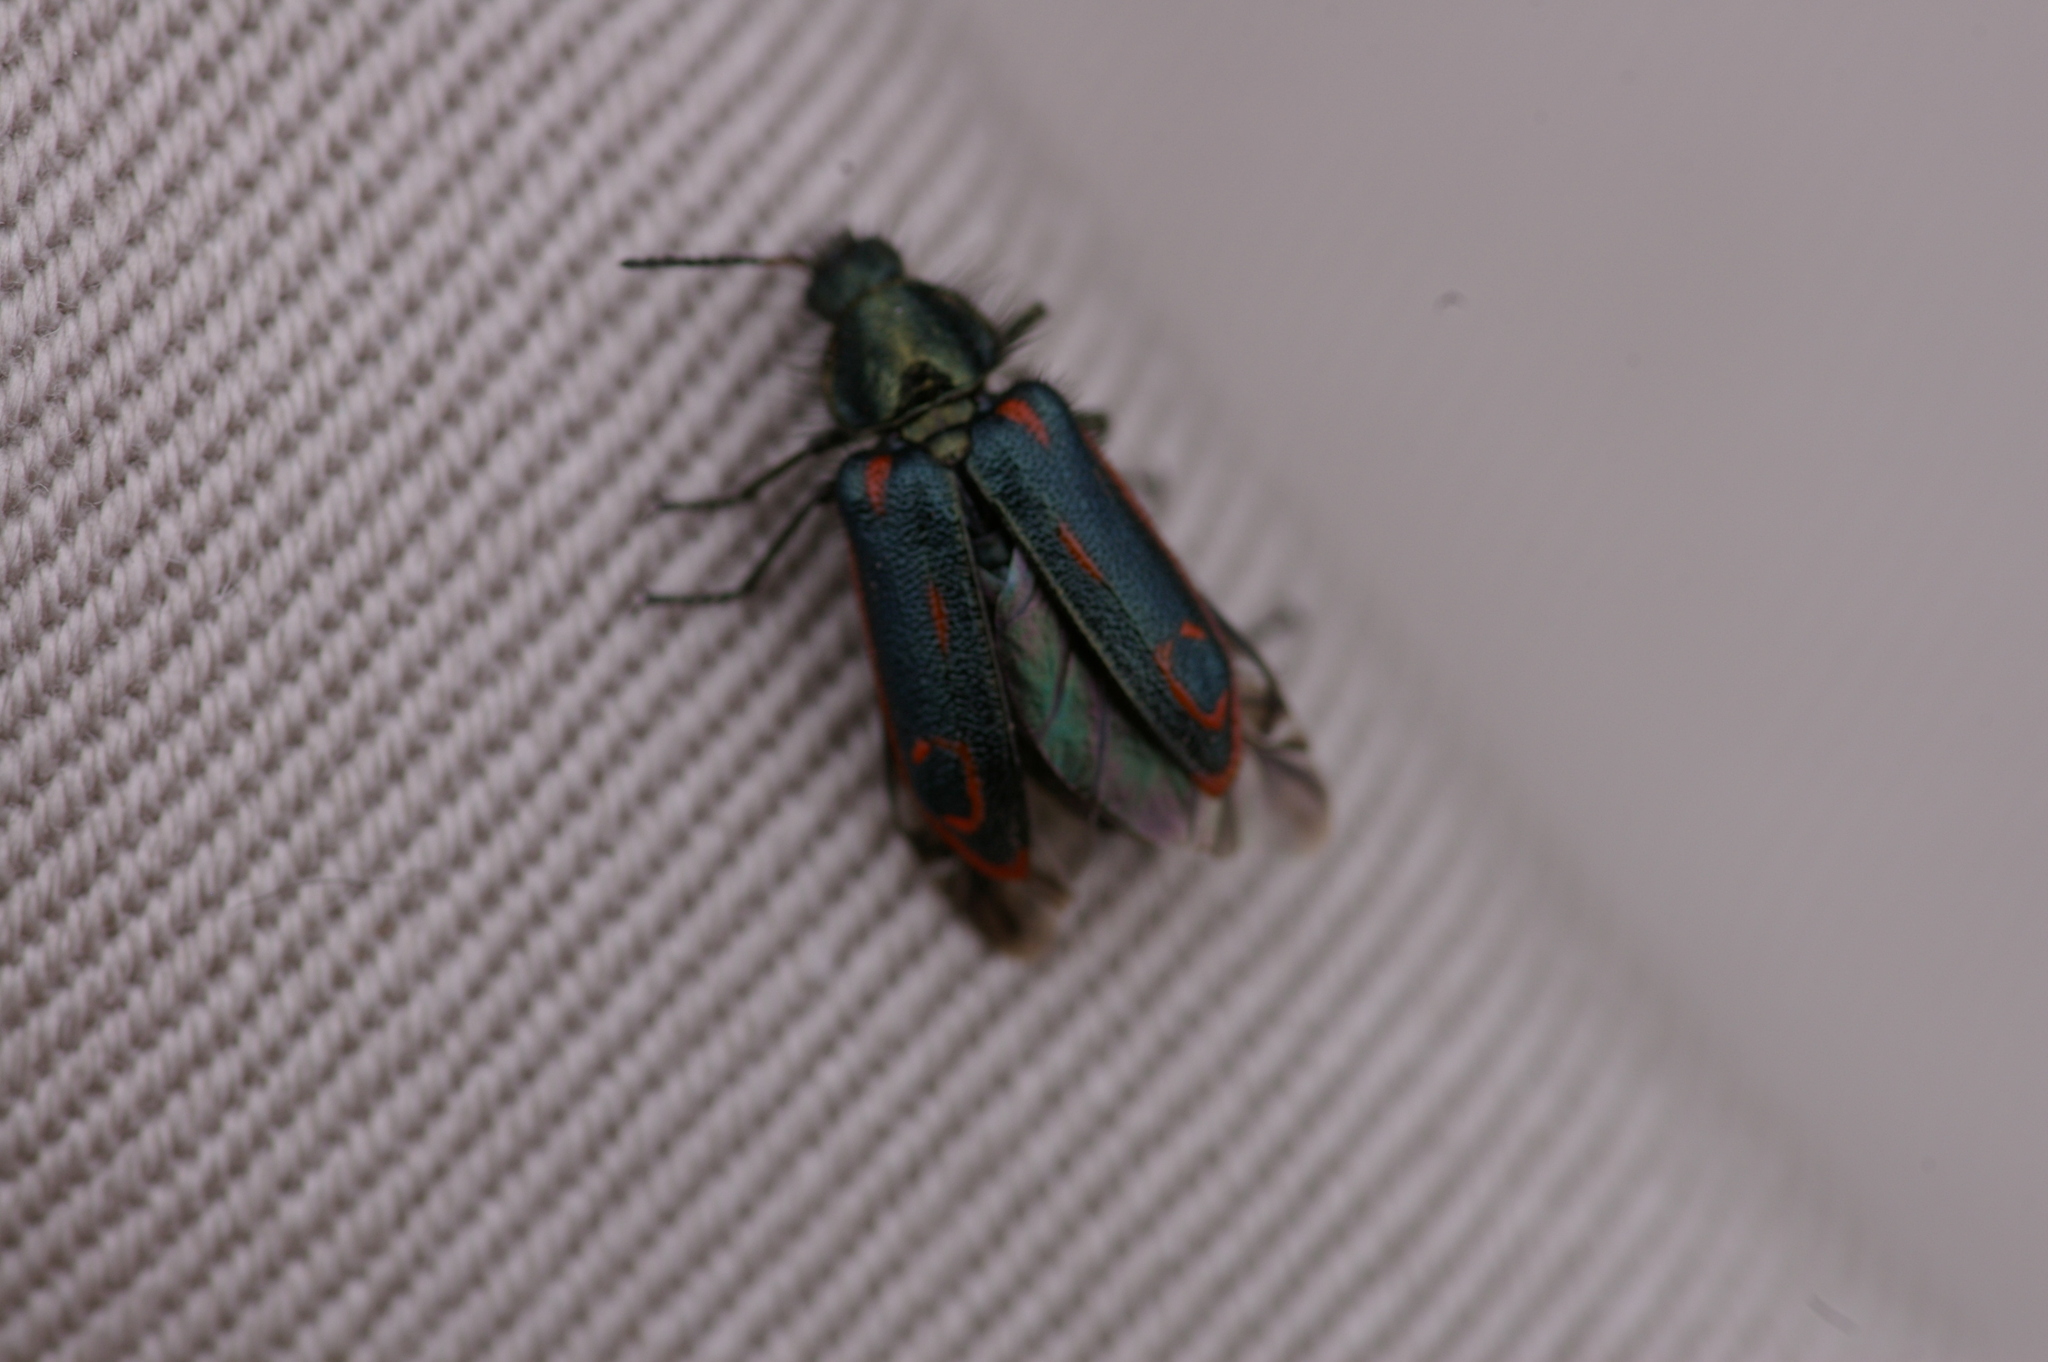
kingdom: Animalia
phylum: Arthropoda
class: Insecta
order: Coleoptera
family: Melyridae
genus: Astylus
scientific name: Astylus
